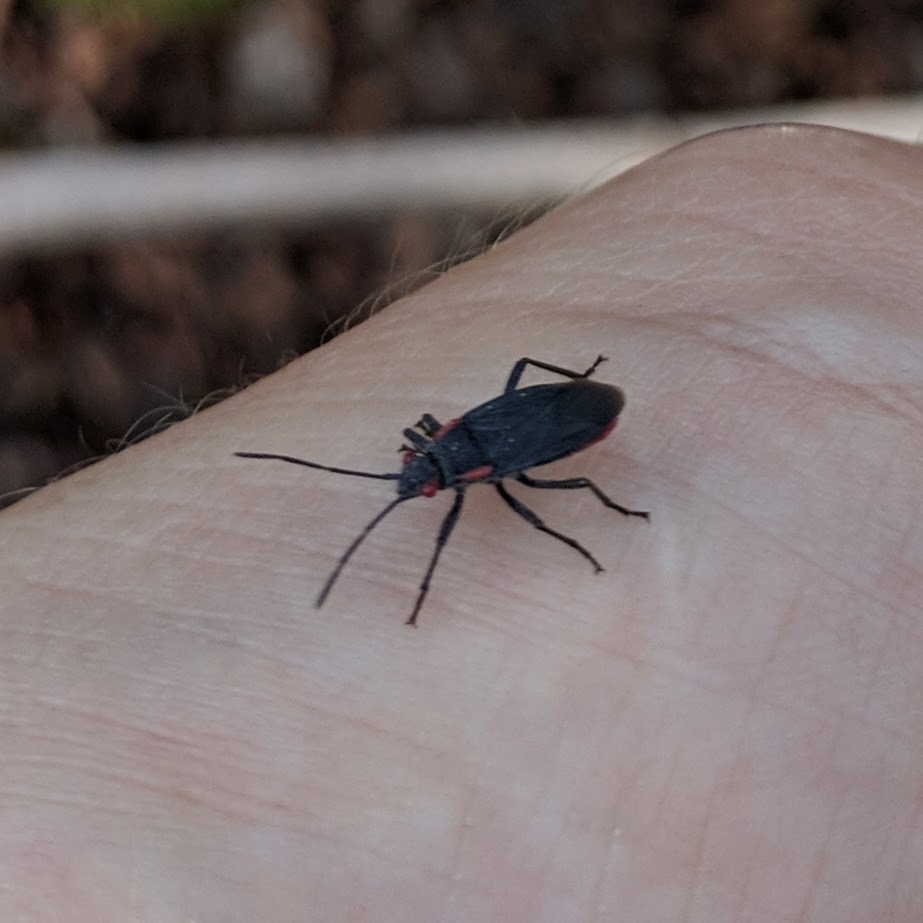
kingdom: Animalia
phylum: Arthropoda
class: Insecta
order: Hemiptera
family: Rhopalidae
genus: Jadera
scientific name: Jadera haematoloma
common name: Red-shouldered bug
